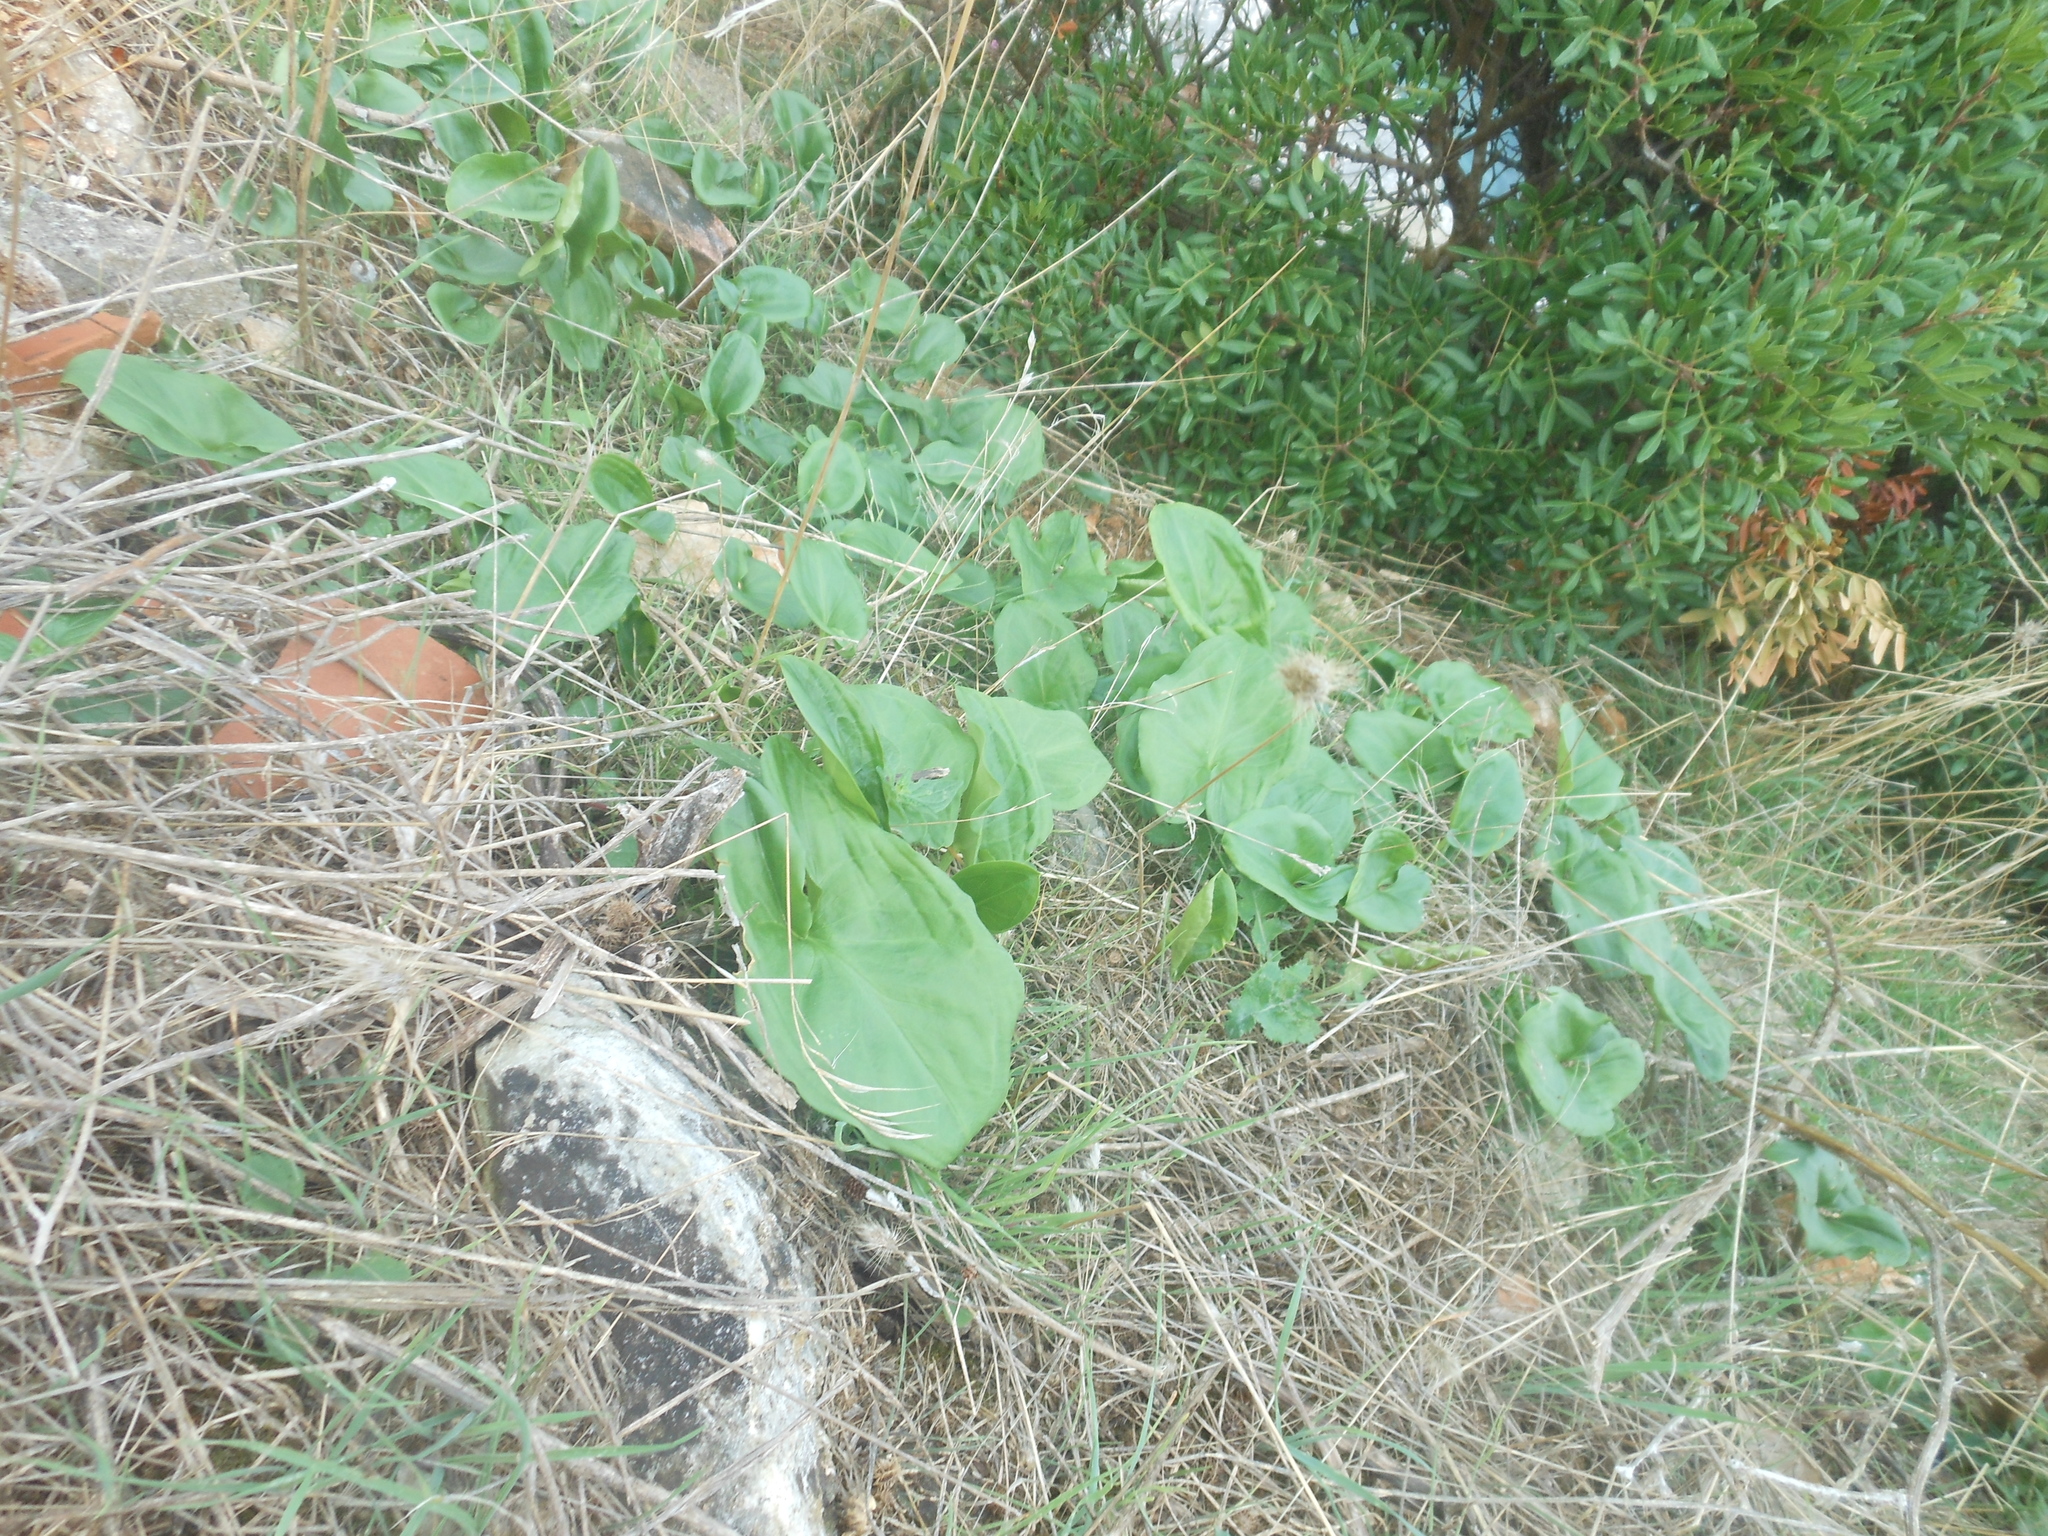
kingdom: Plantae
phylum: Tracheophyta
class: Liliopsida
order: Alismatales
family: Araceae
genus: Arisarum
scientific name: Arisarum vulgare
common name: Common arisarum
